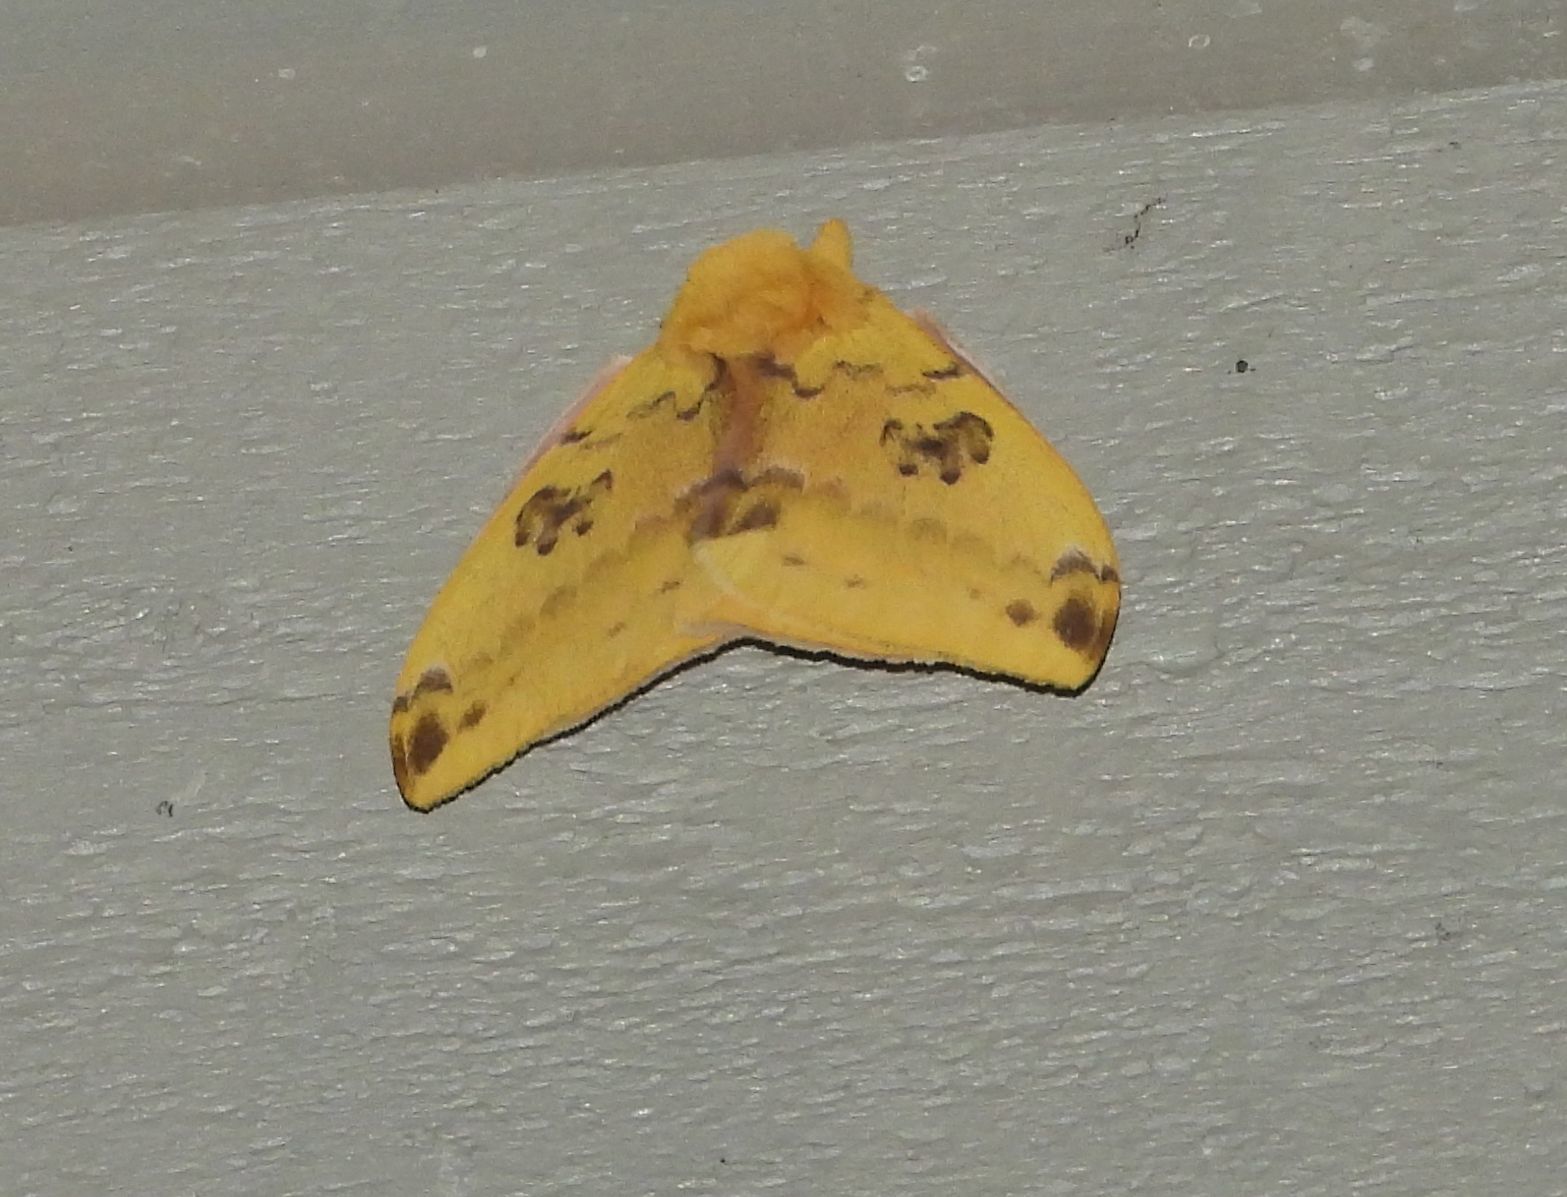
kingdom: Animalia
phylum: Arthropoda
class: Insecta
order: Lepidoptera
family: Saturniidae
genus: Automeris
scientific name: Automeris io
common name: Io moth
